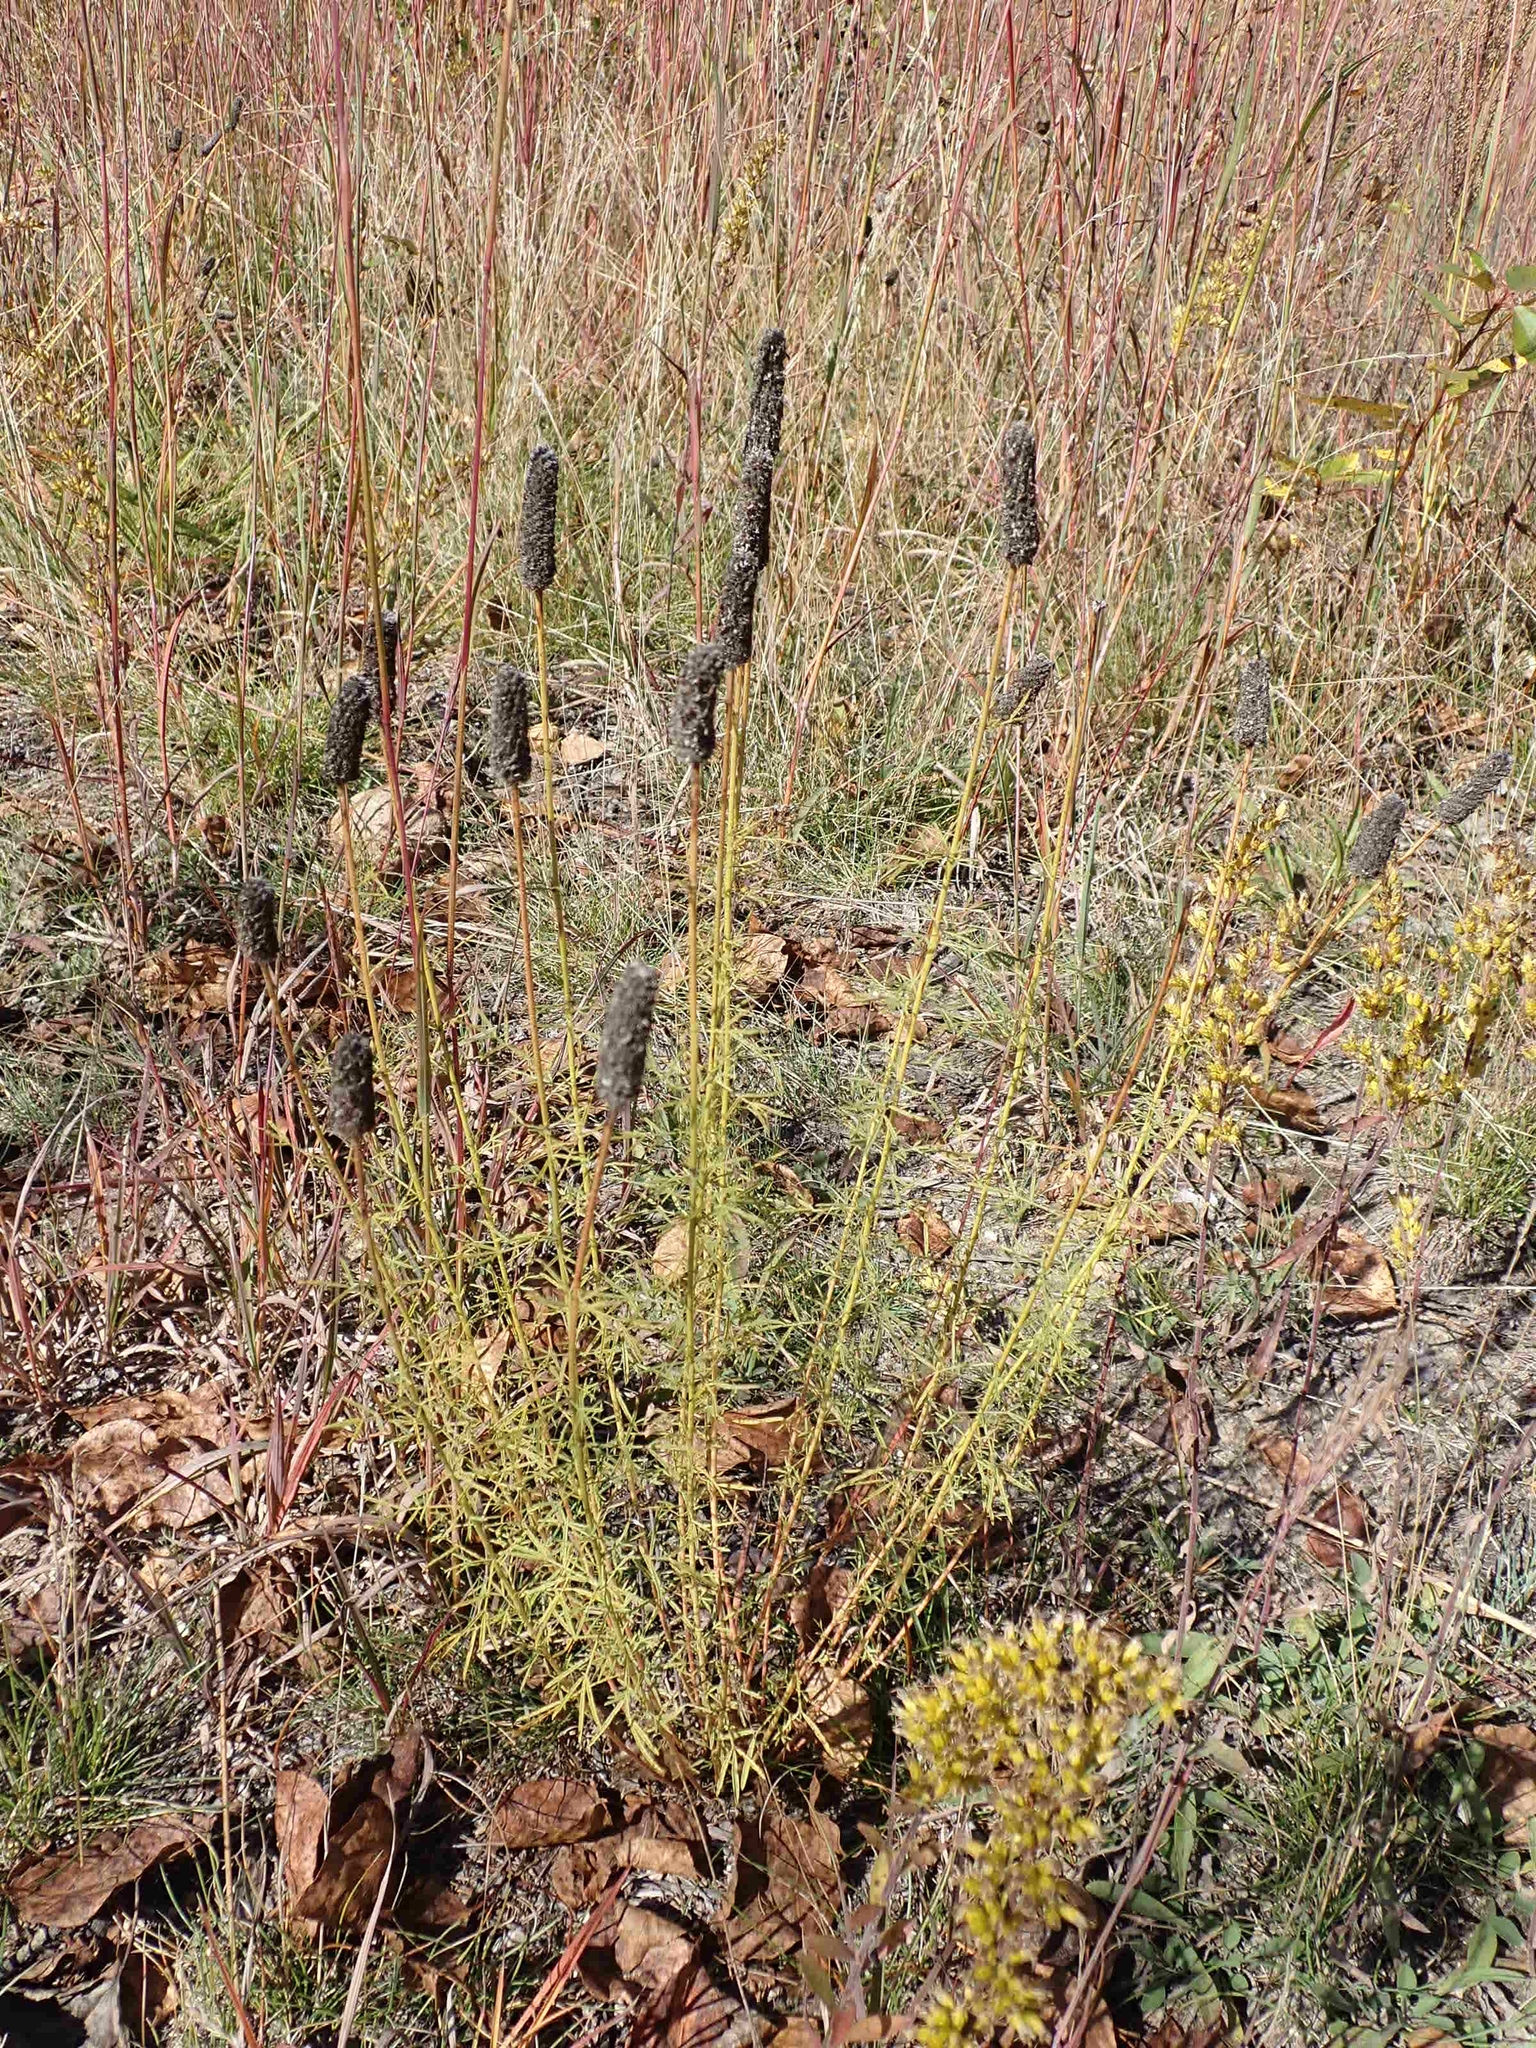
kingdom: Plantae
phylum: Tracheophyta
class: Magnoliopsida
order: Fabales
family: Fabaceae
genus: Dalea
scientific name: Dalea purpurea
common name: Purple prairie-clover
